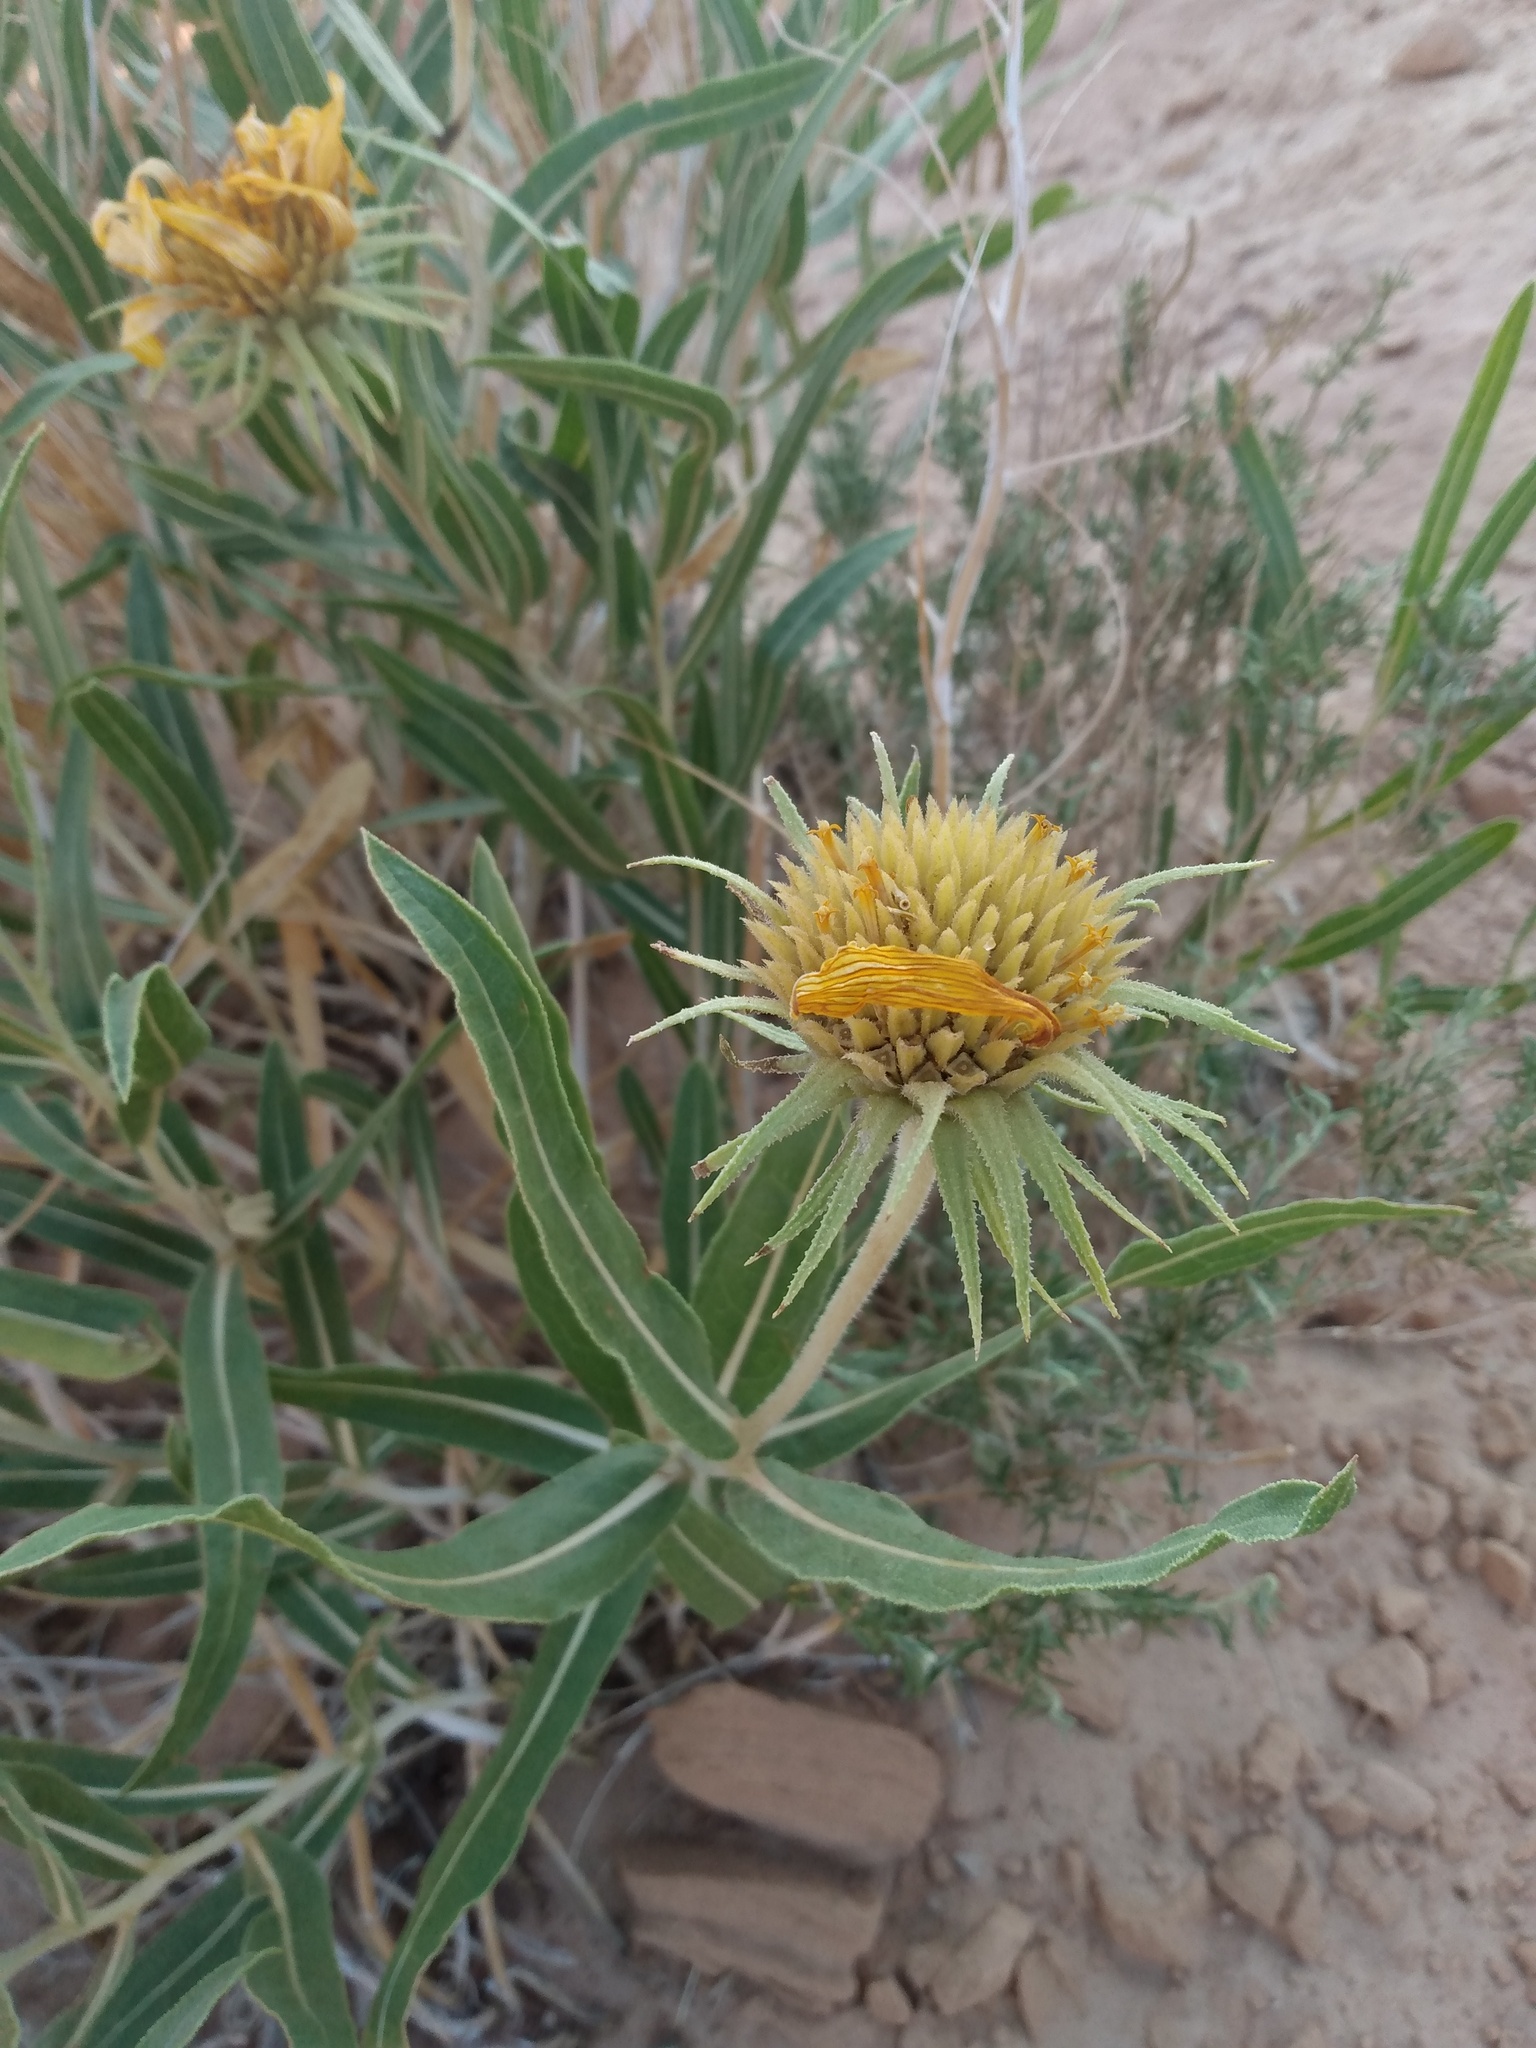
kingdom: Plantae
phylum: Tracheophyta
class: Magnoliopsida
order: Asterales
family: Asteraceae
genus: Scabrethia
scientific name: Scabrethia scabra
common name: Rough mules's-ears
